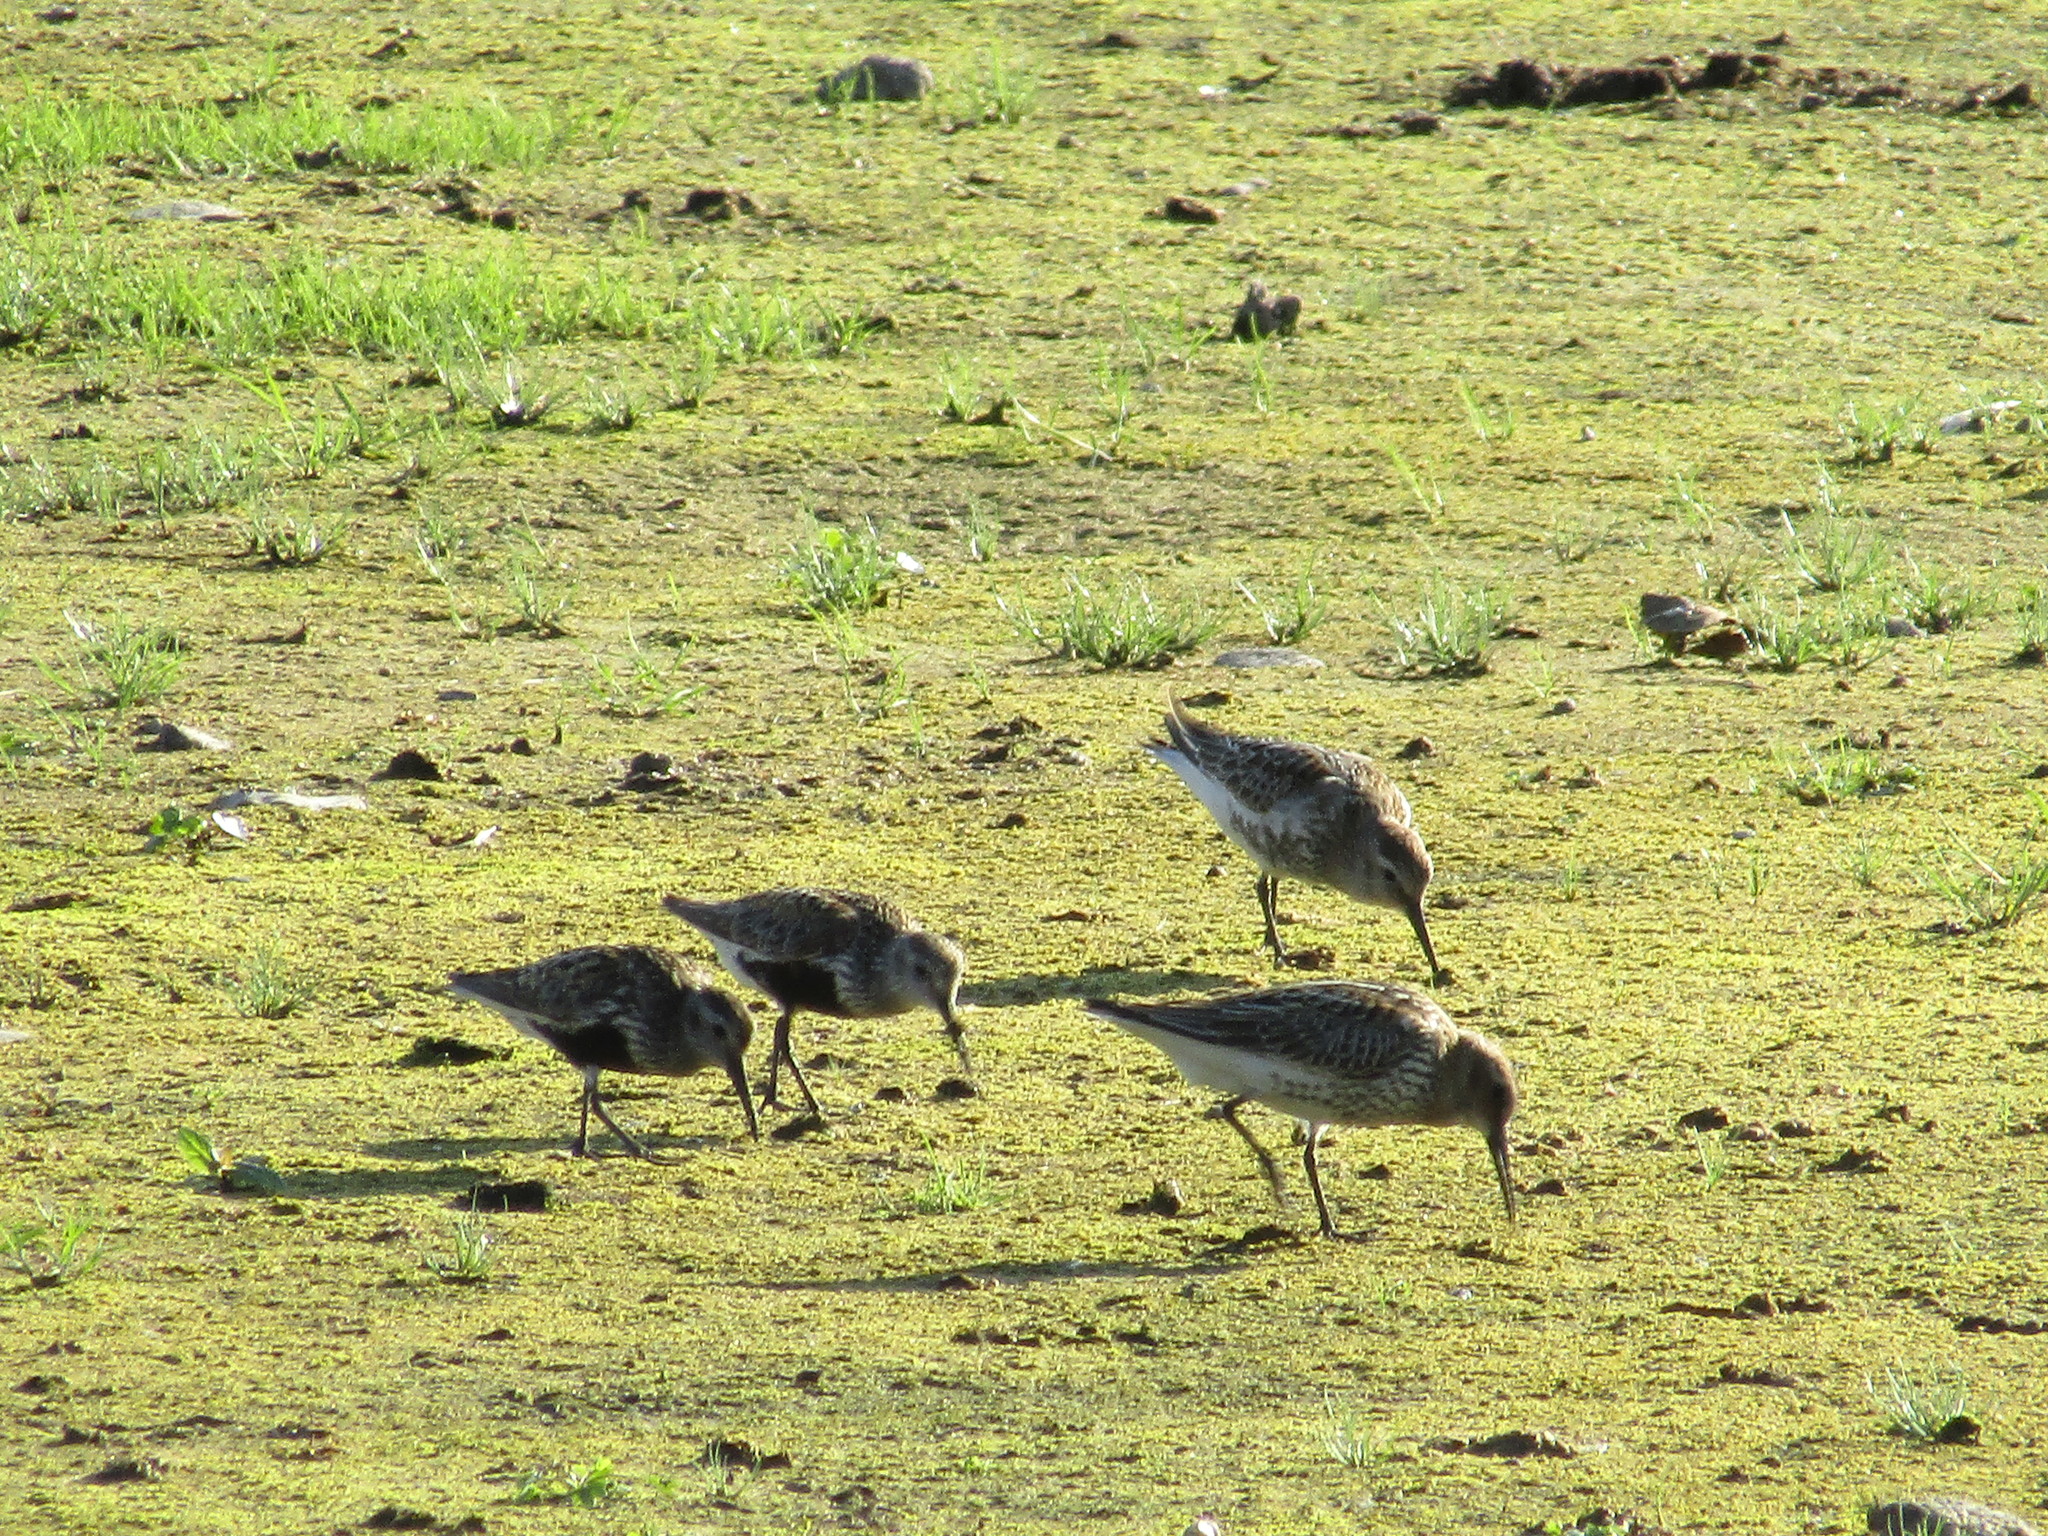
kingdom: Animalia
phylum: Chordata
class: Aves
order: Charadriiformes
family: Scolopacidae
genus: Calidris
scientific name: Calidris alpina
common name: Dunlin
